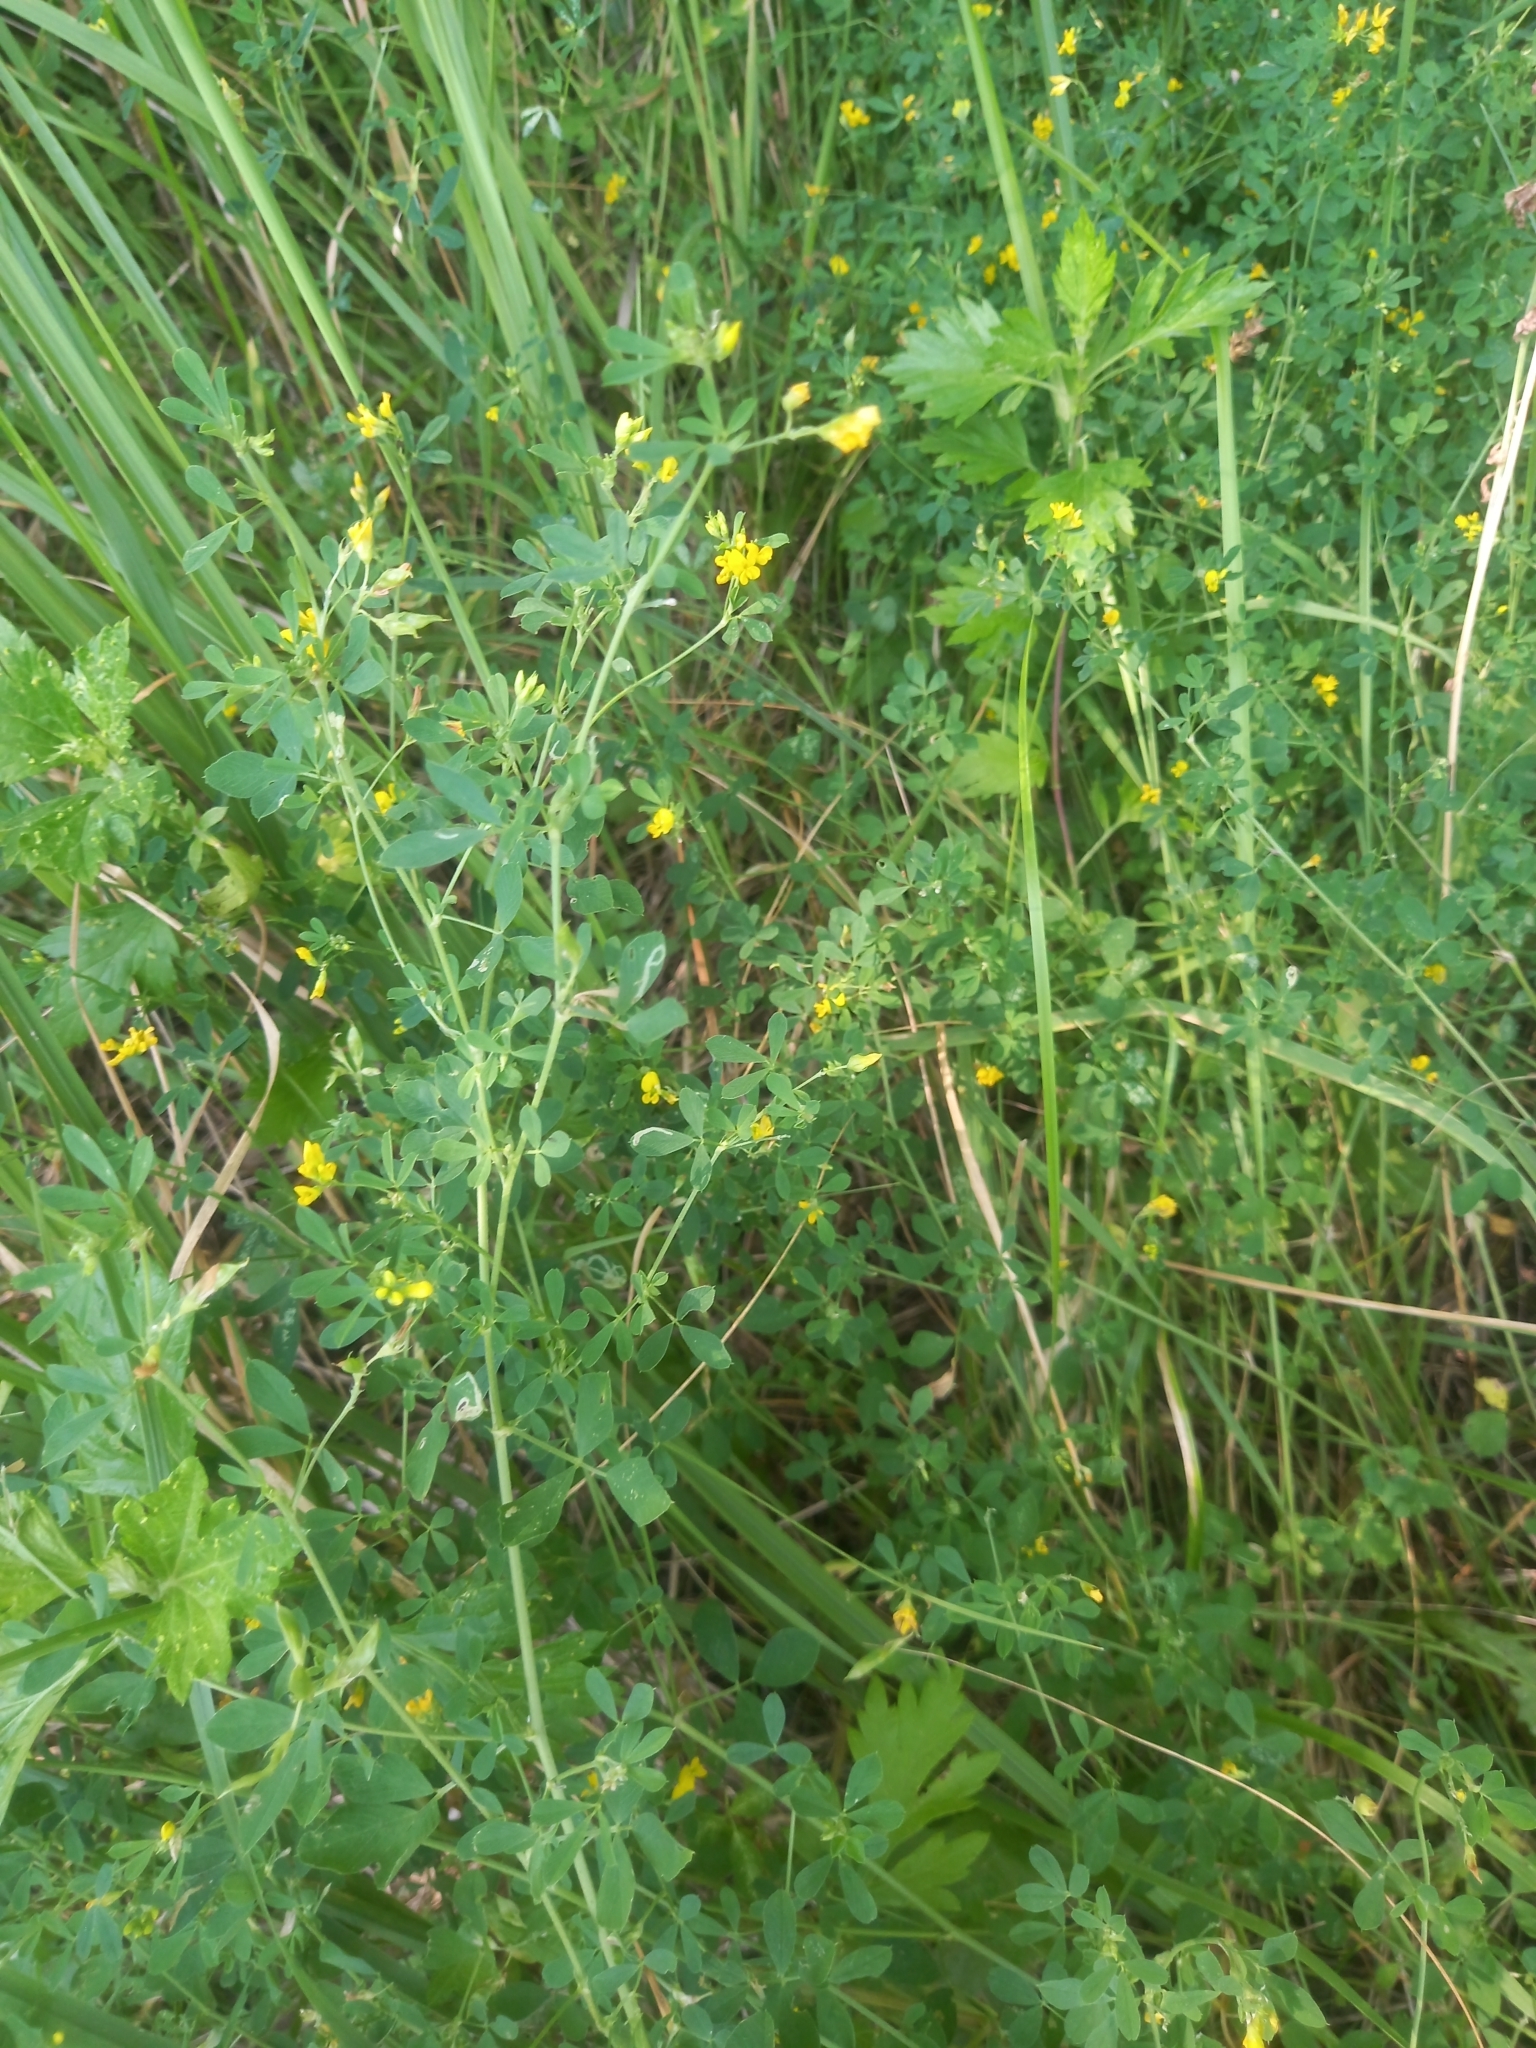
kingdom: Plantae
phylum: Tracheophyta
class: Magnoliopsida
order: Fabales
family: Fabaceae
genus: Medicago
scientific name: Medicago falcata
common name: Sickle medick
